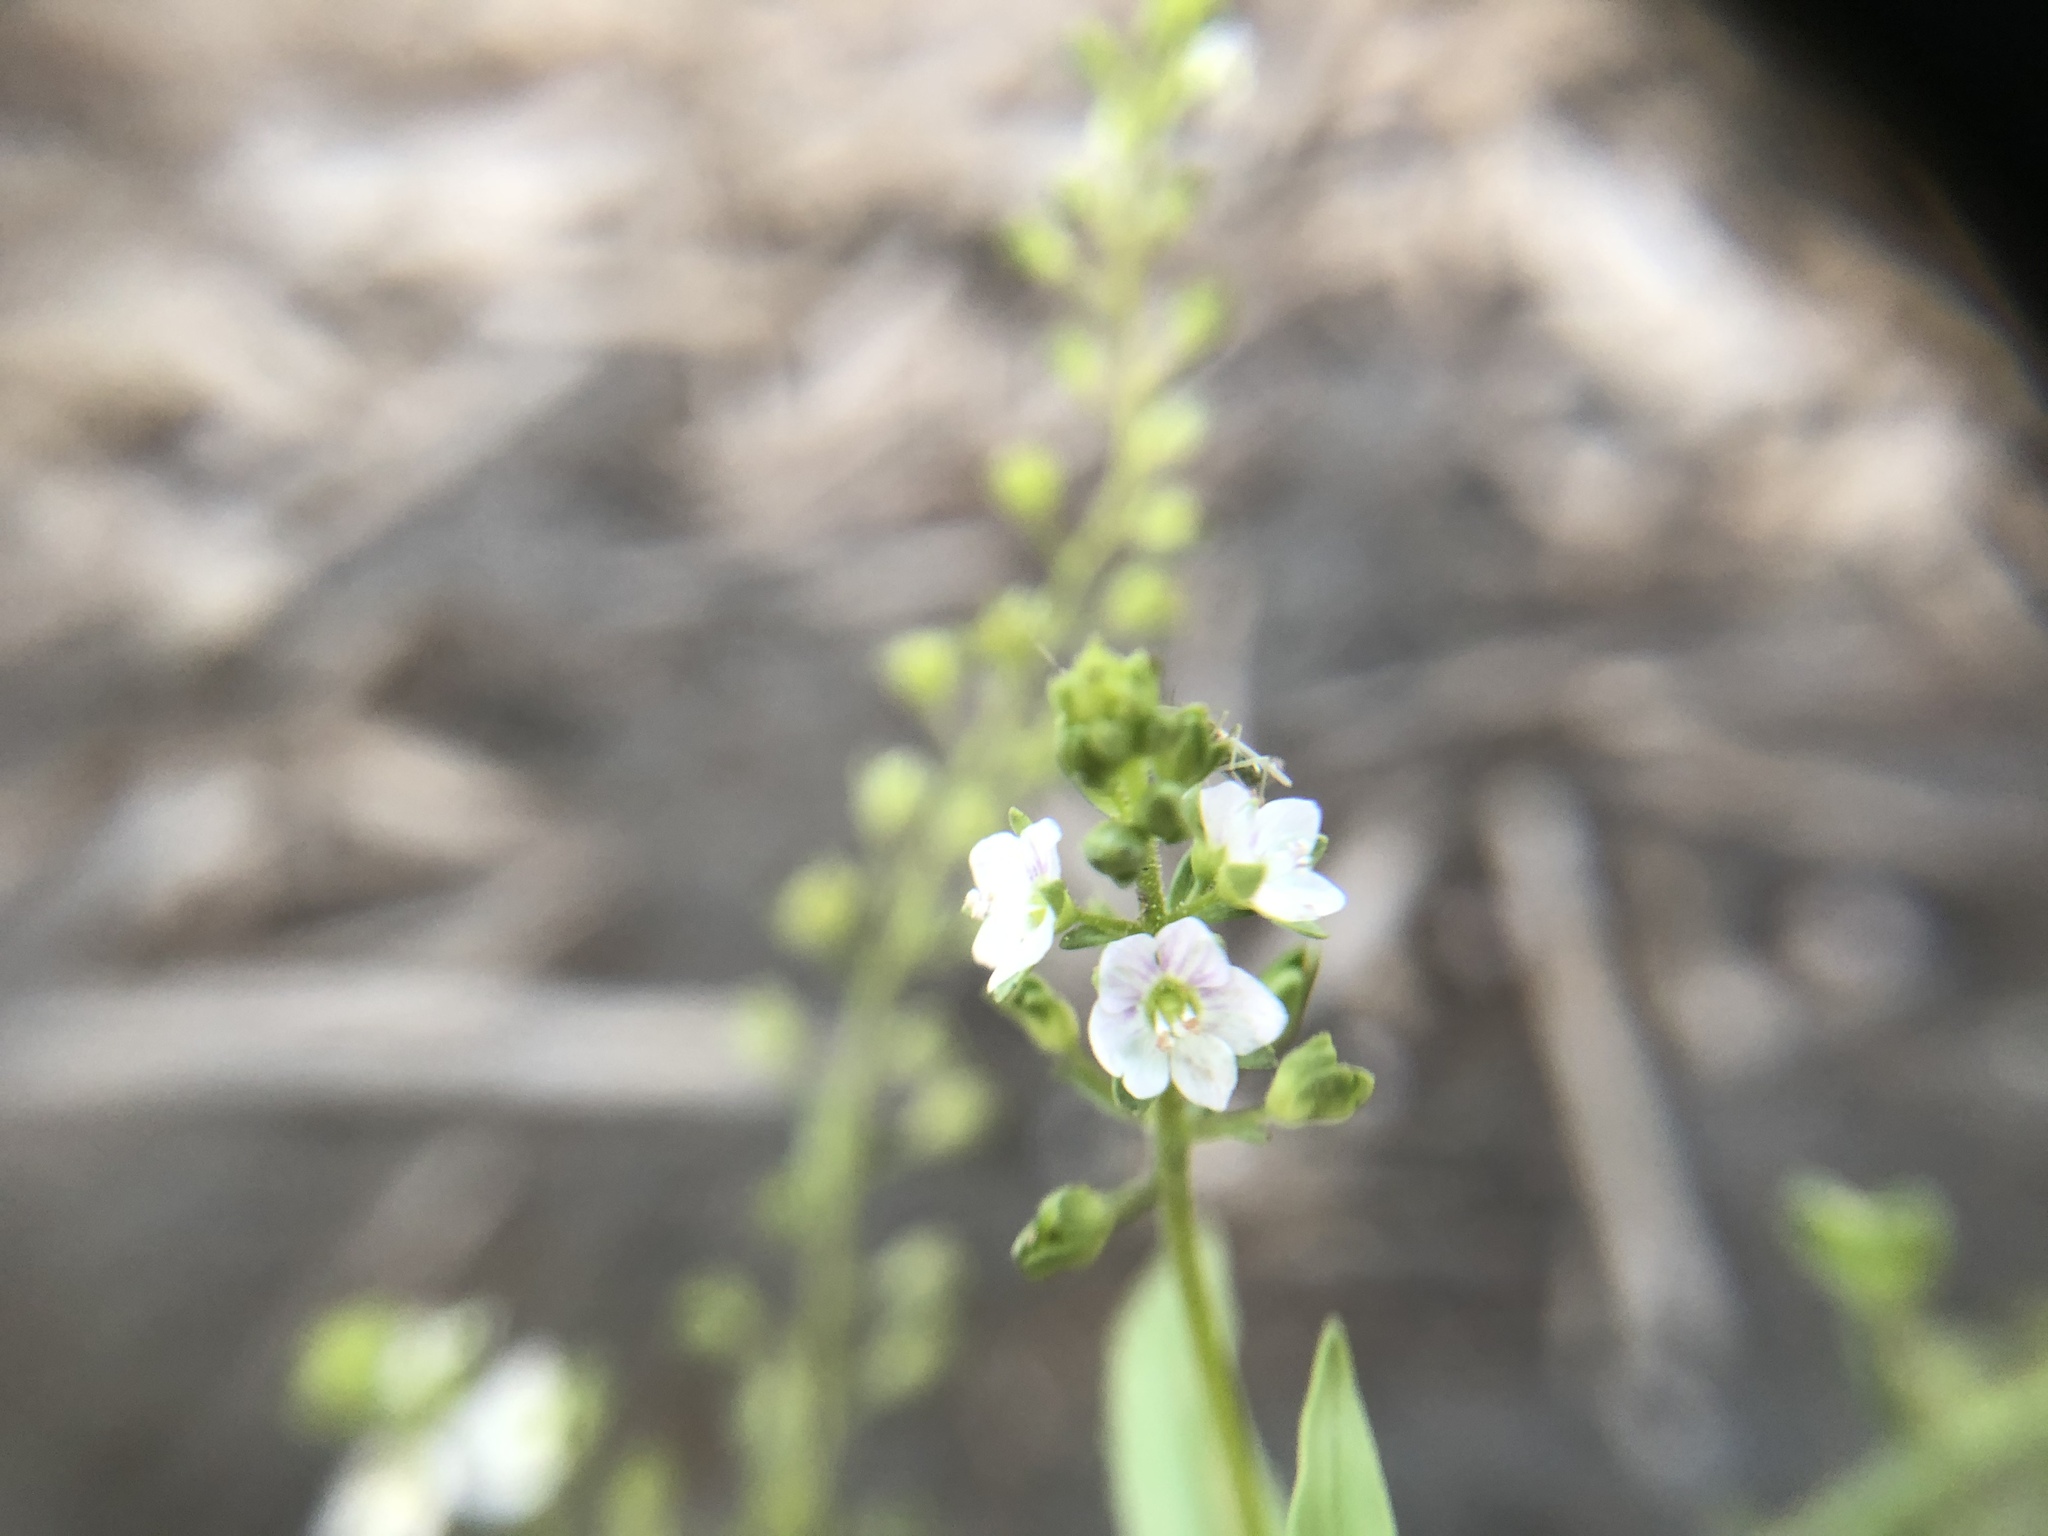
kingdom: Plantae
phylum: Tracheophyta
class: Magnoliopsida
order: Lamiales
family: Plantaginaceae
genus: Veronica
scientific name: Veronica undulata
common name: Undulate speedwell
